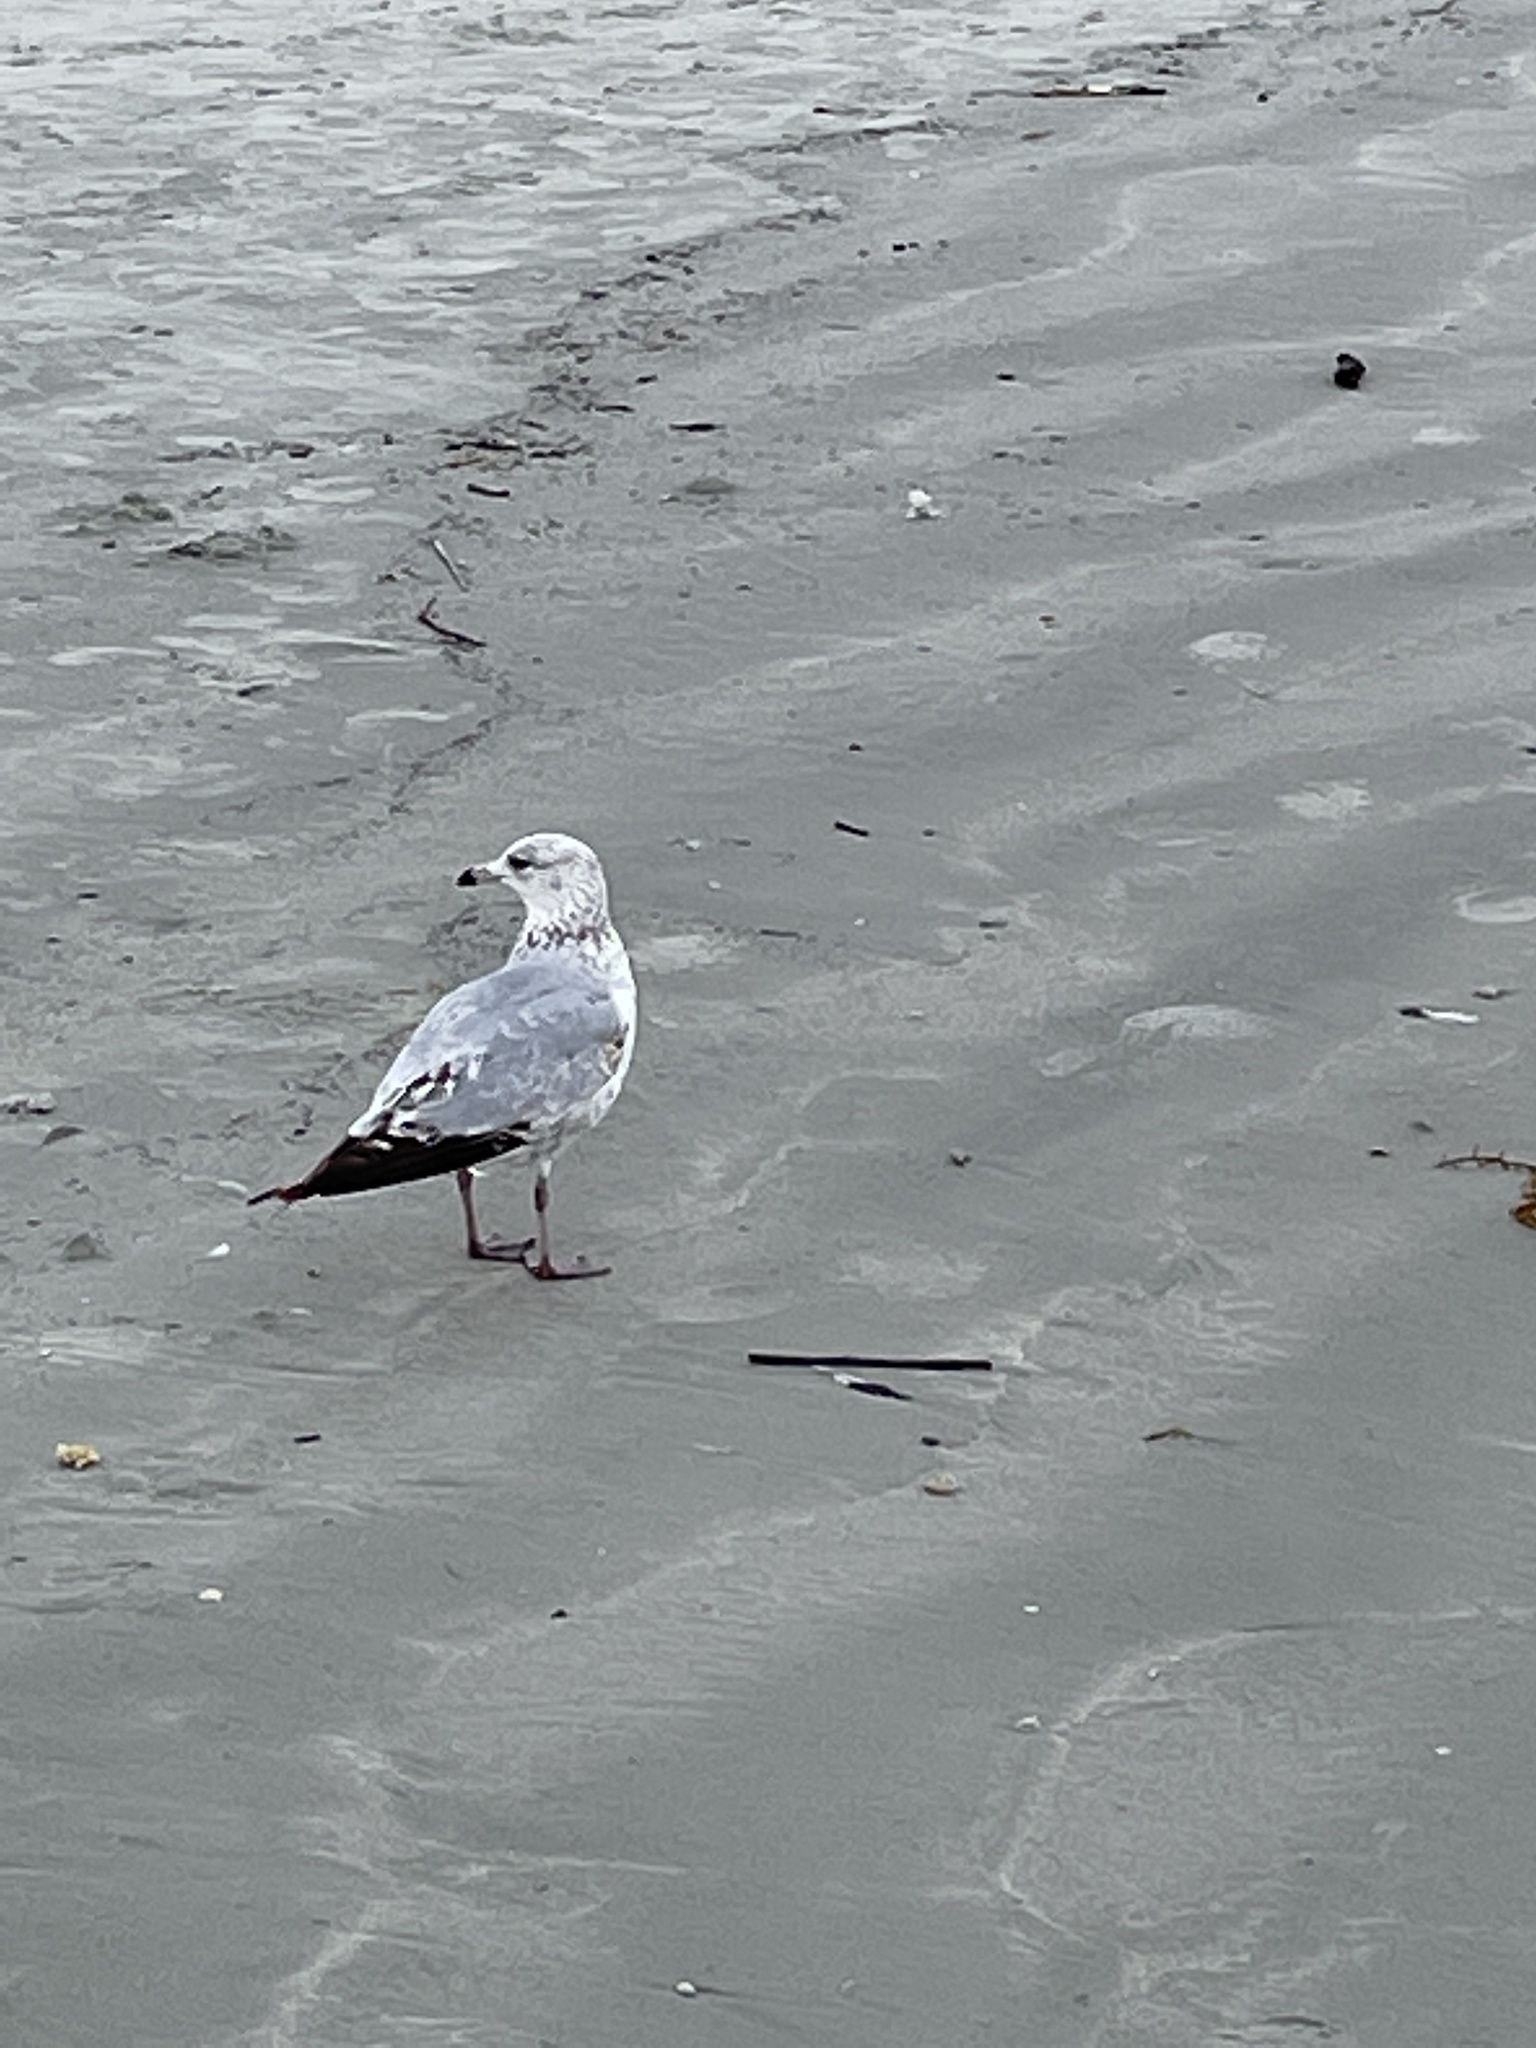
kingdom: Animalia
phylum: Chordata
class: Aves
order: Charadriiformes
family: Laridae
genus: Larus
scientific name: Larus delawarensis
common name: Ring-billed gull
